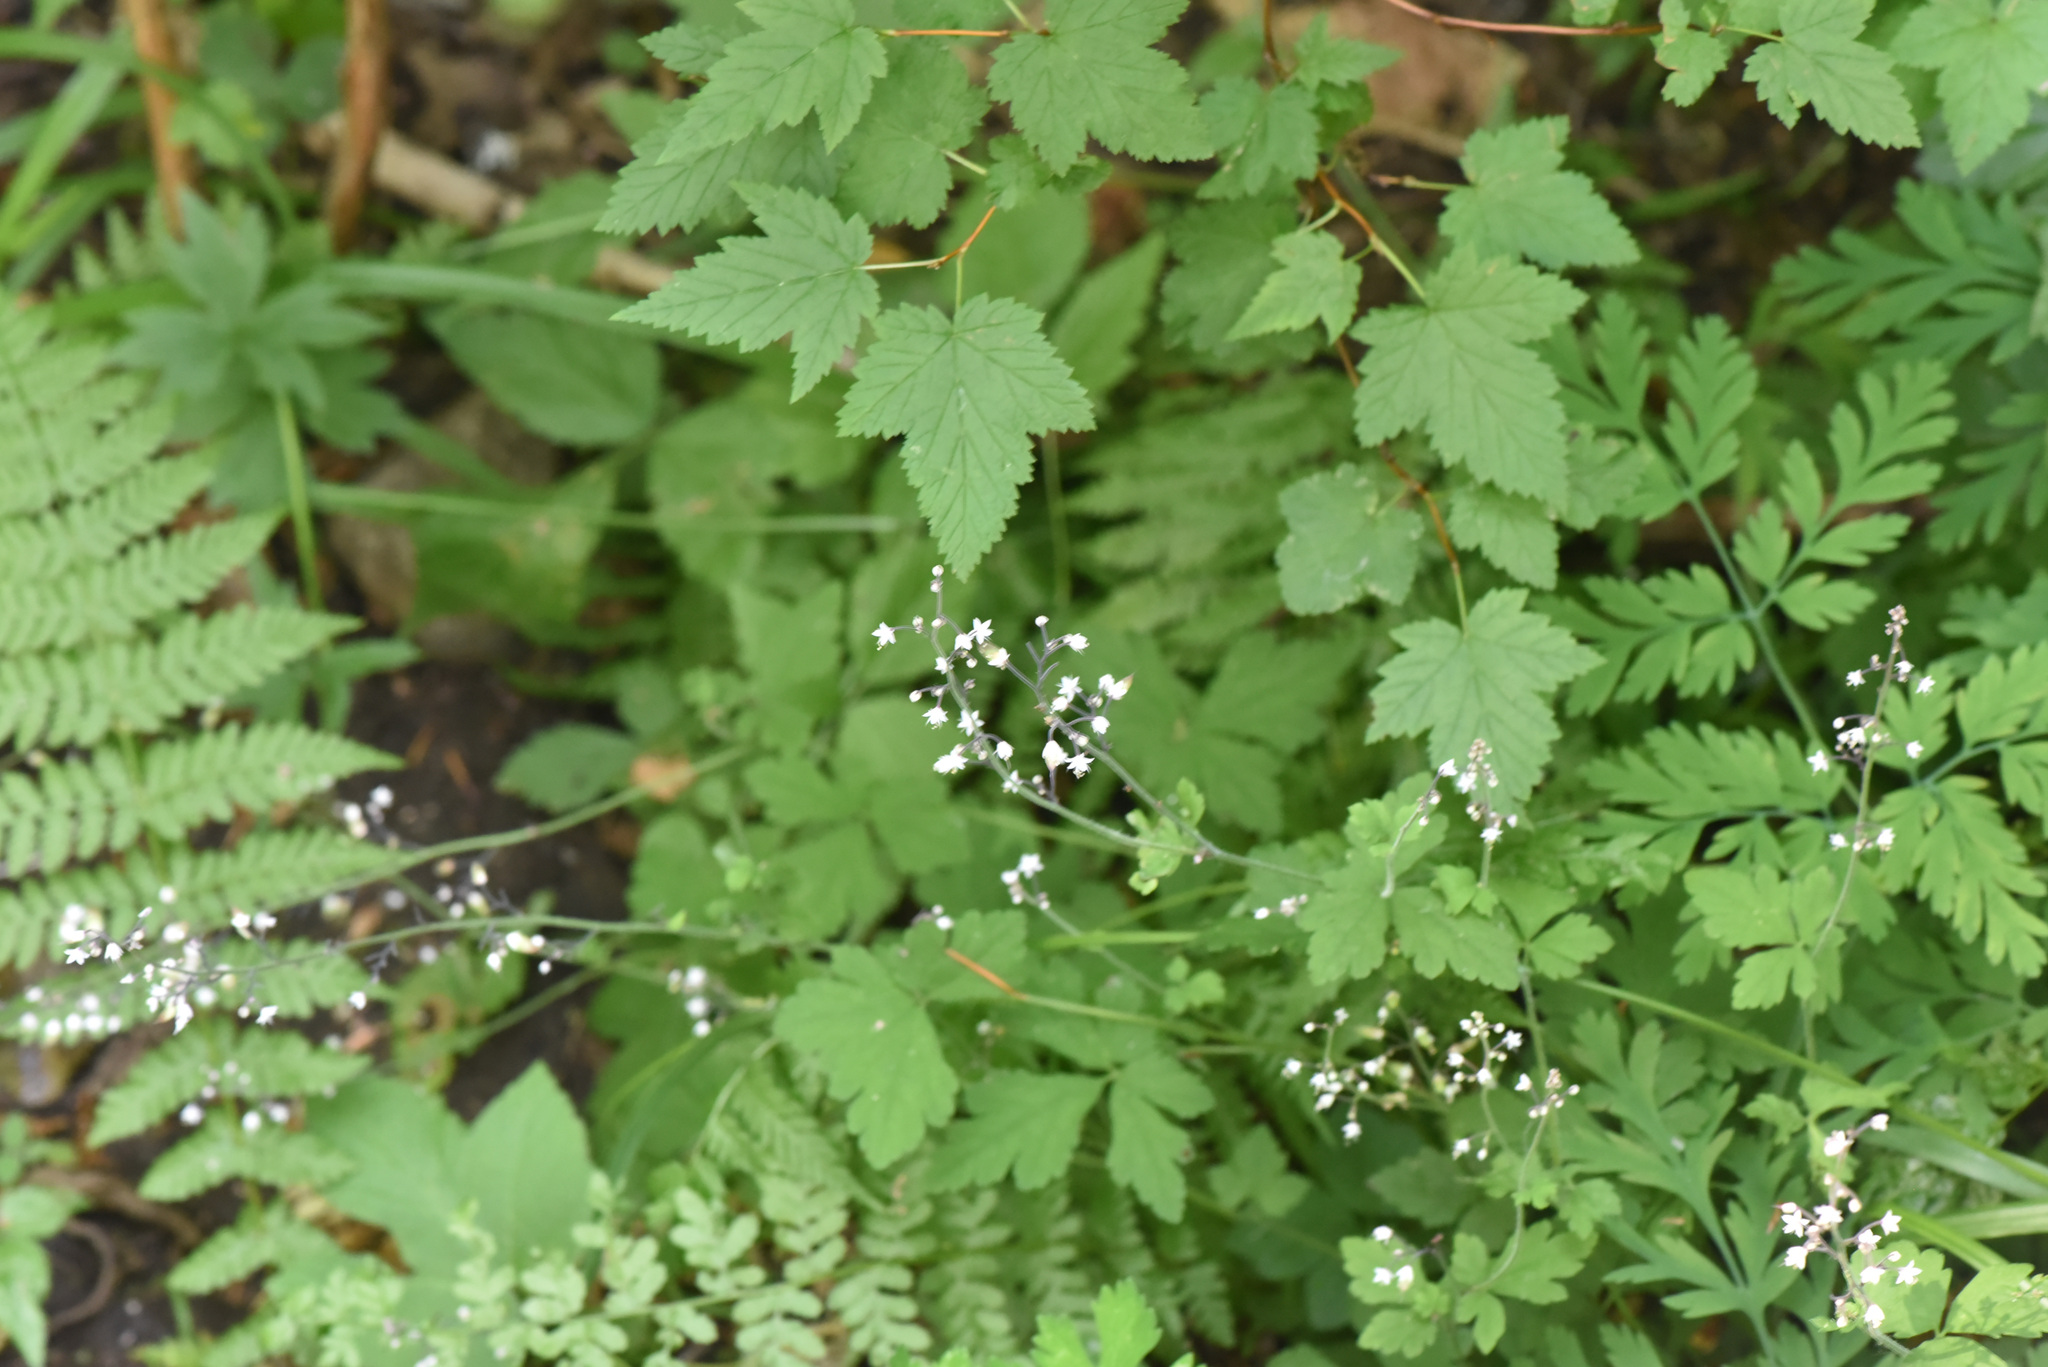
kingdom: Plantae
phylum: Tracheophyta
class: Magnoliopsida
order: Saxifragales
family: Saxifragaceae
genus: Tiarella
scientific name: Tiarella trifoliata
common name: Sugar-scoop
